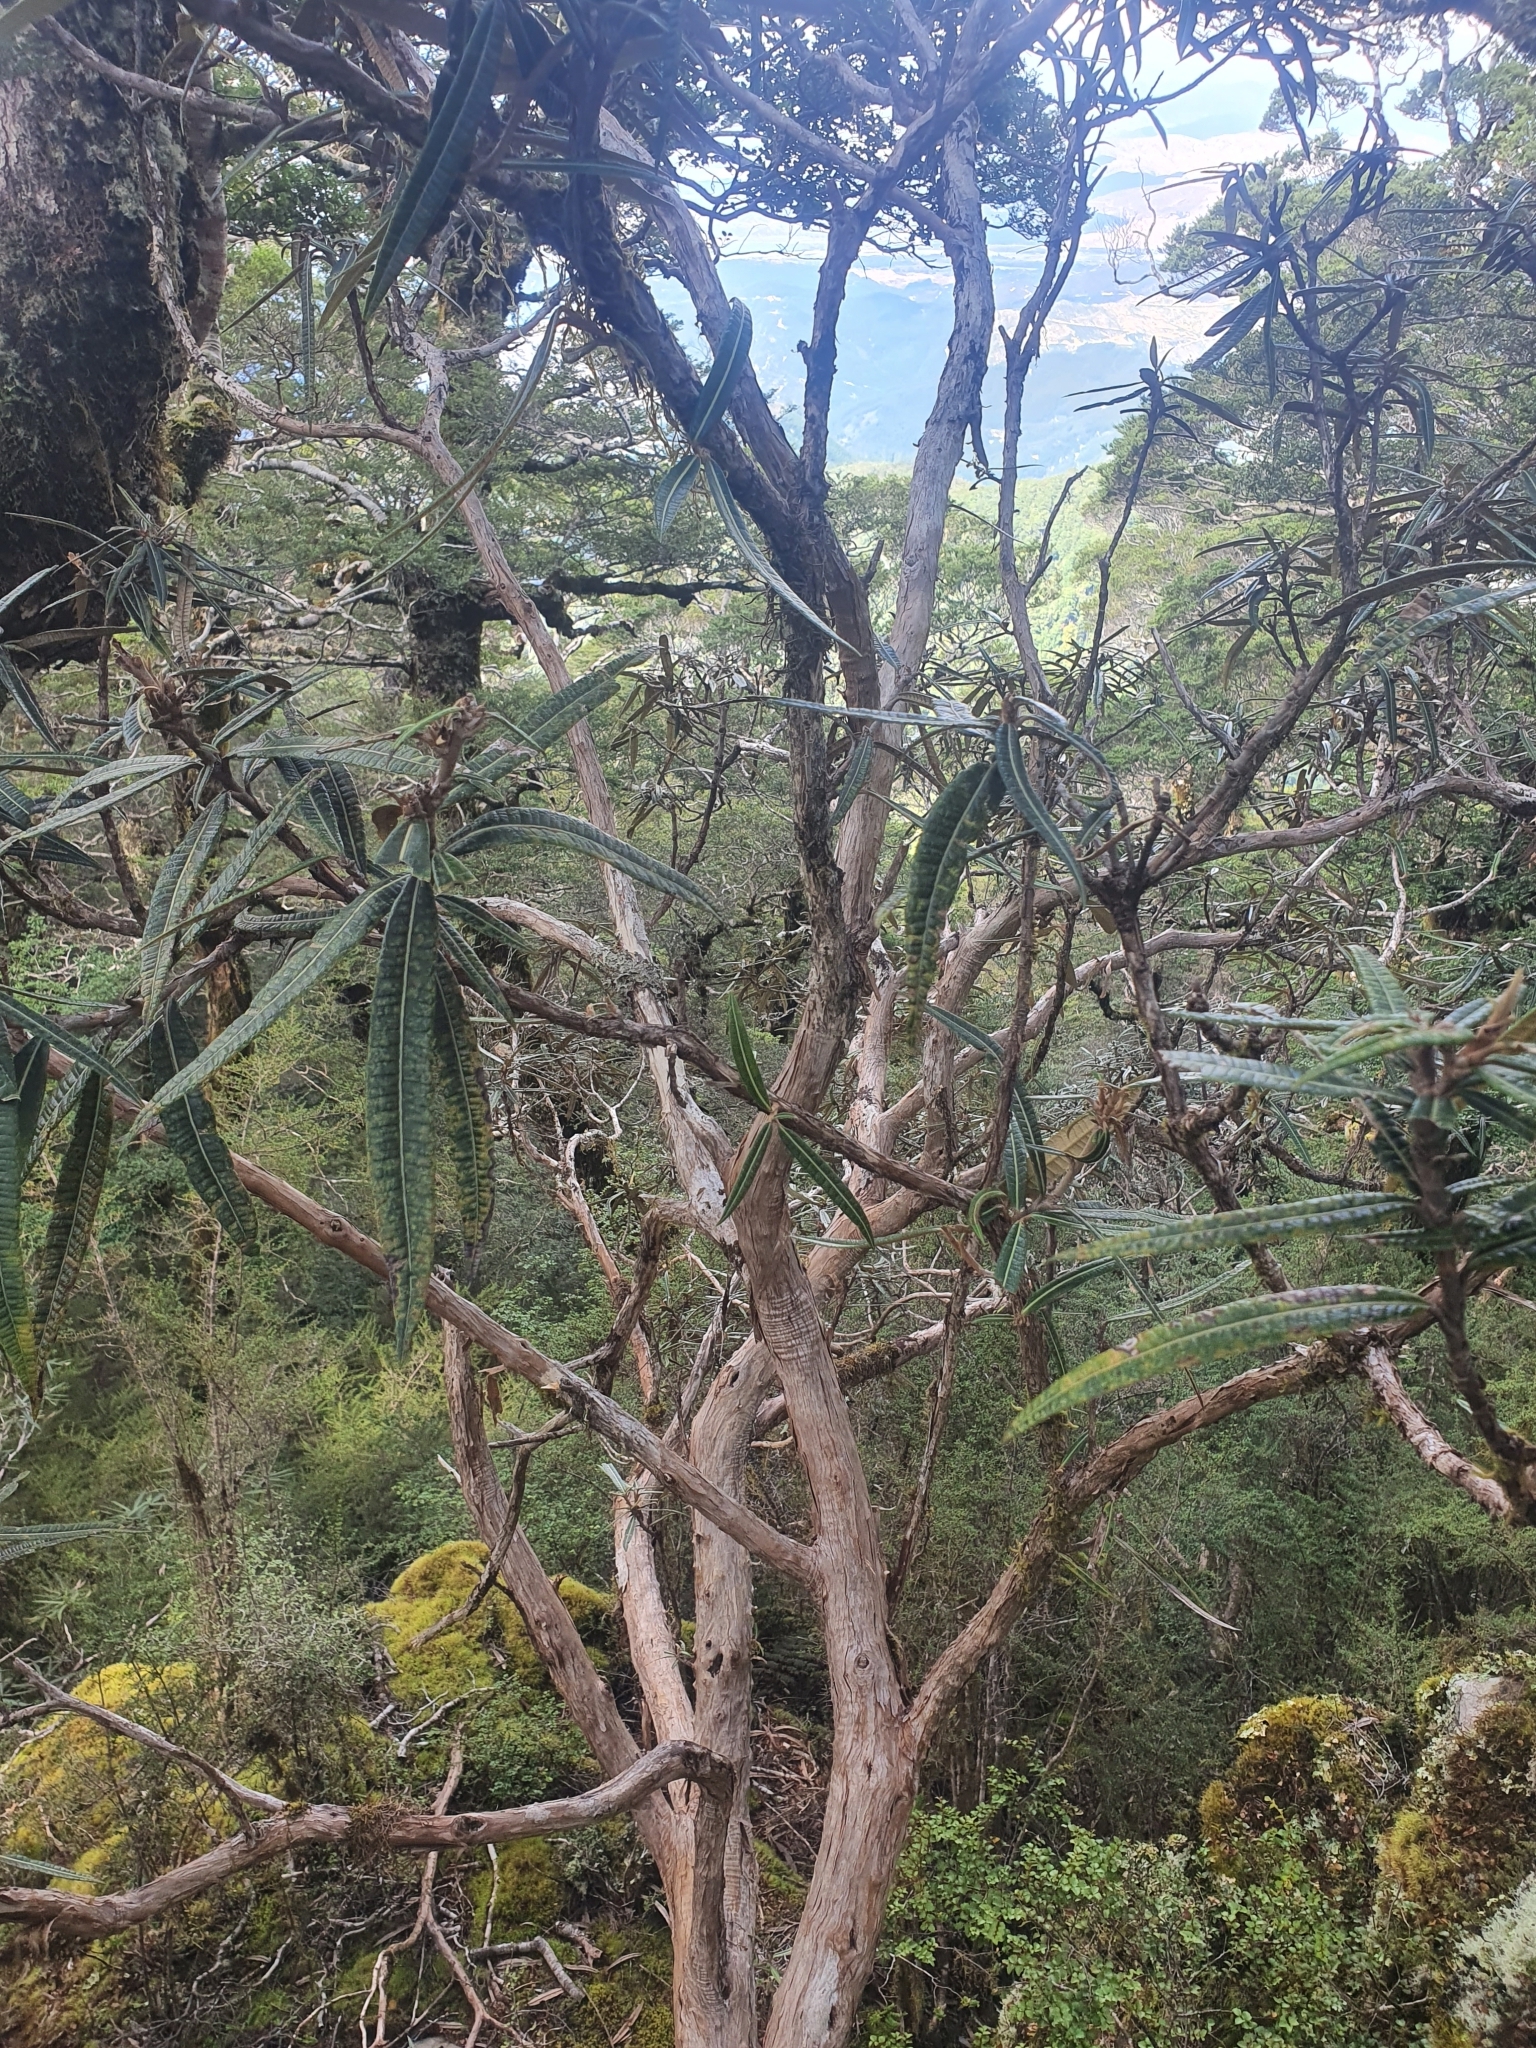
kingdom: Plantae
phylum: Tracheophyta
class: Magnoliopsida
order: Asterales
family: Asteraceae
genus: Olearia
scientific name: Olearia lacunosa
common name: Lancewood tree daisy
